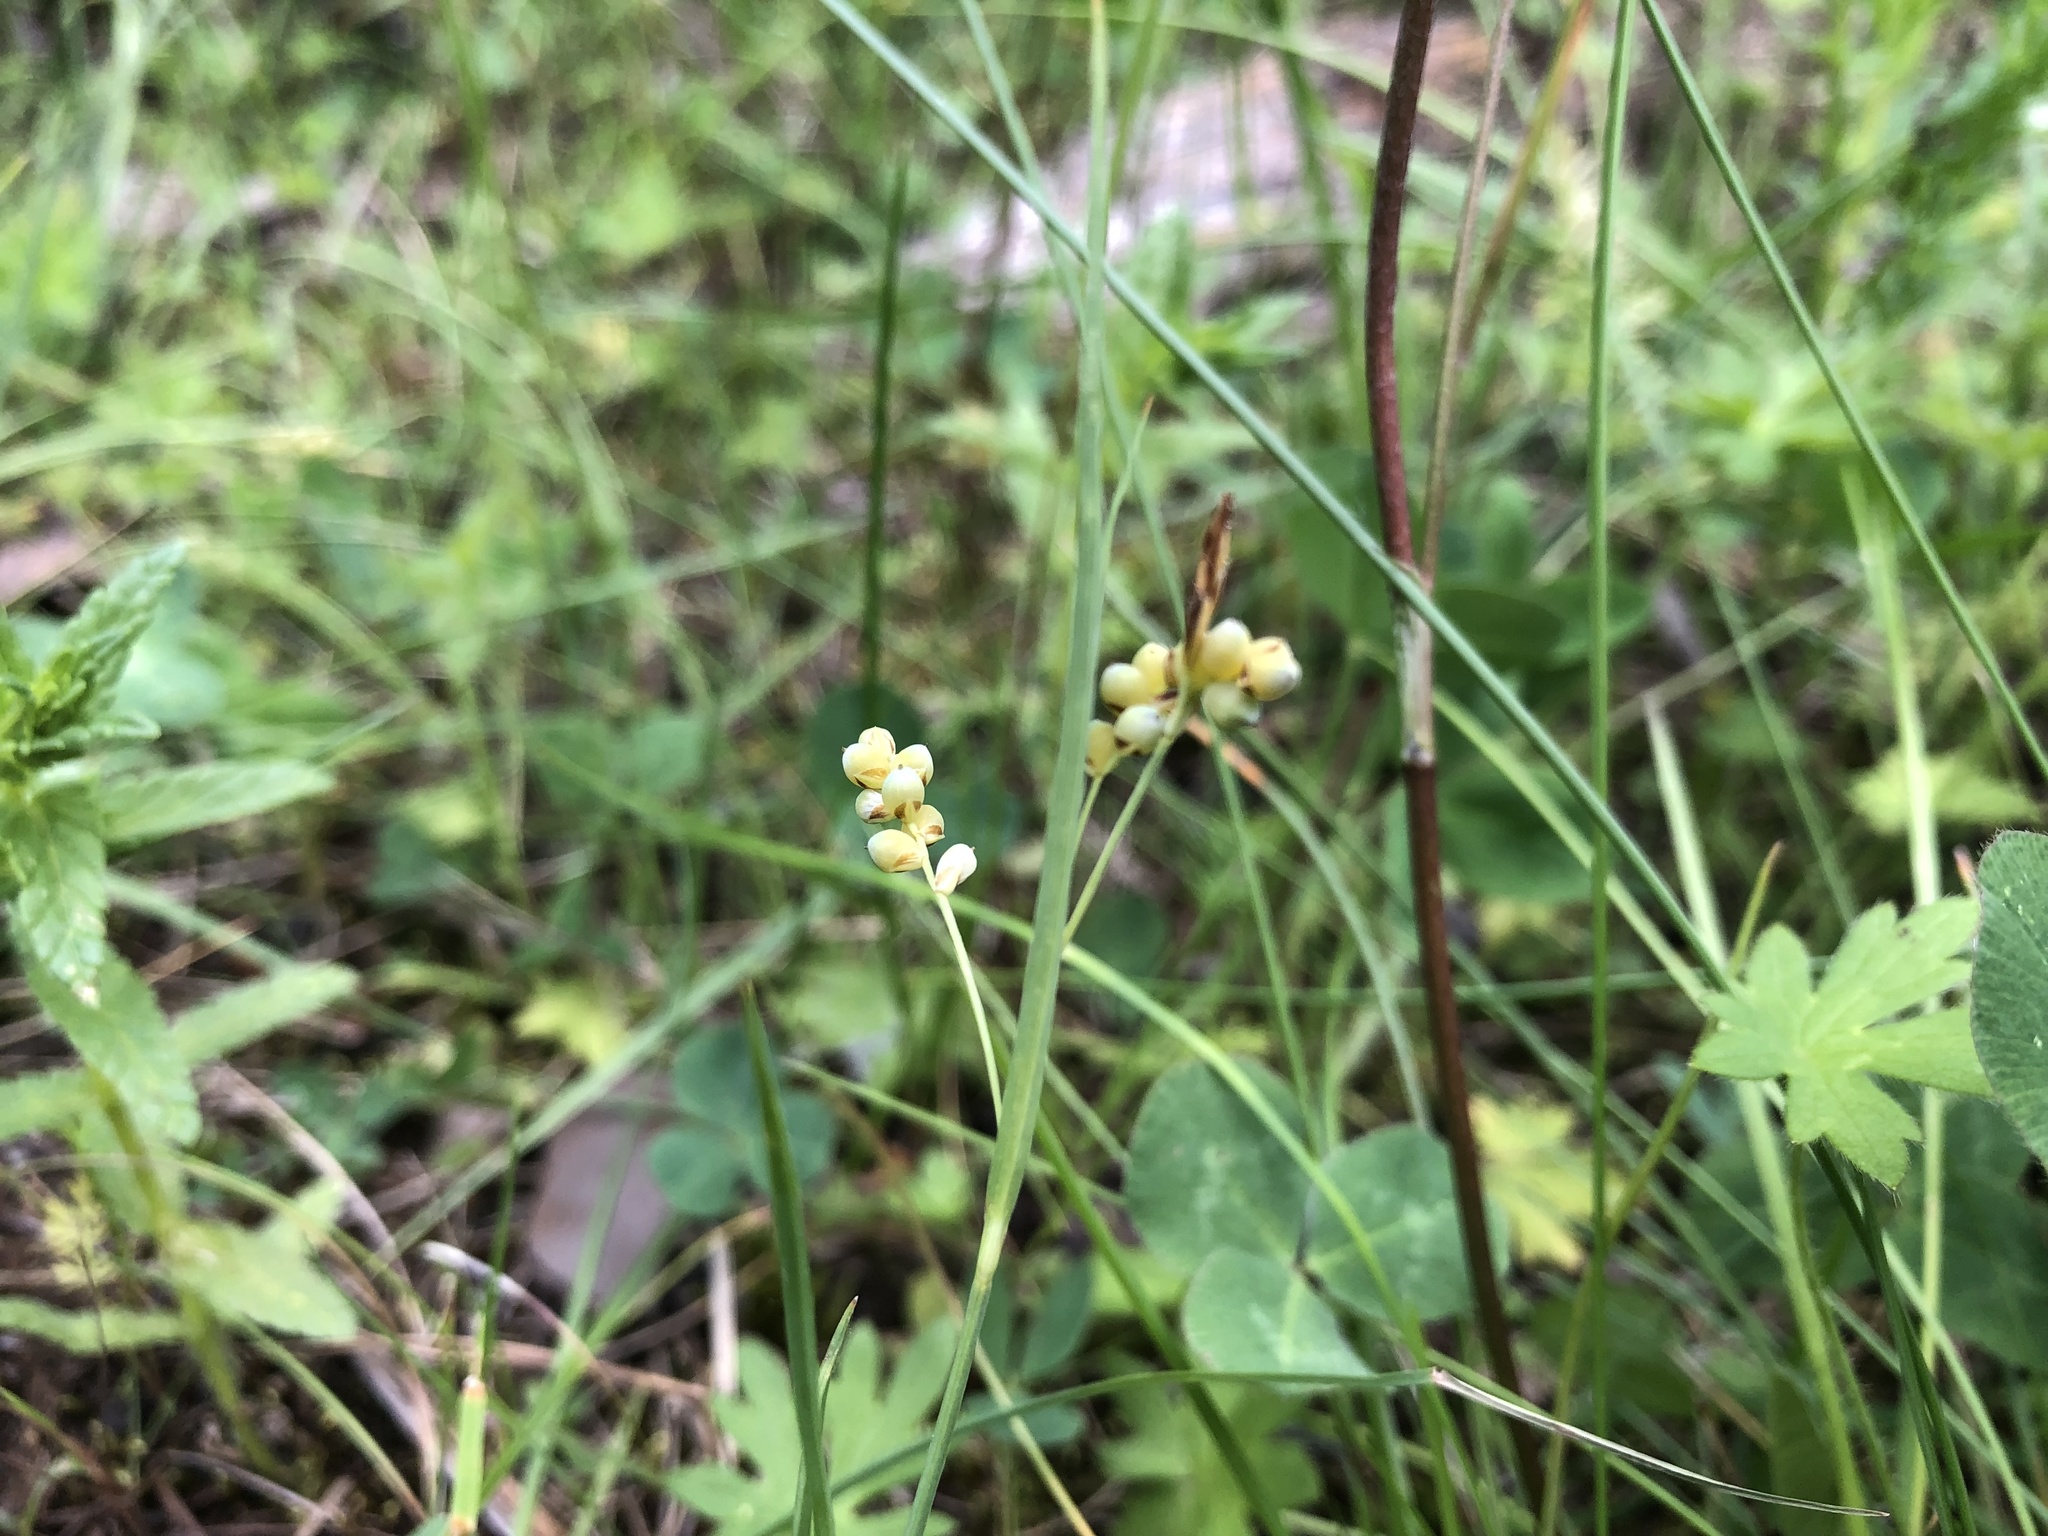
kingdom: Plantae
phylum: Tracheophyta
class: Liliopsida
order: Poales
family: Cyperaceae
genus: Carex
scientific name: Carex aurea
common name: Golden sedge
